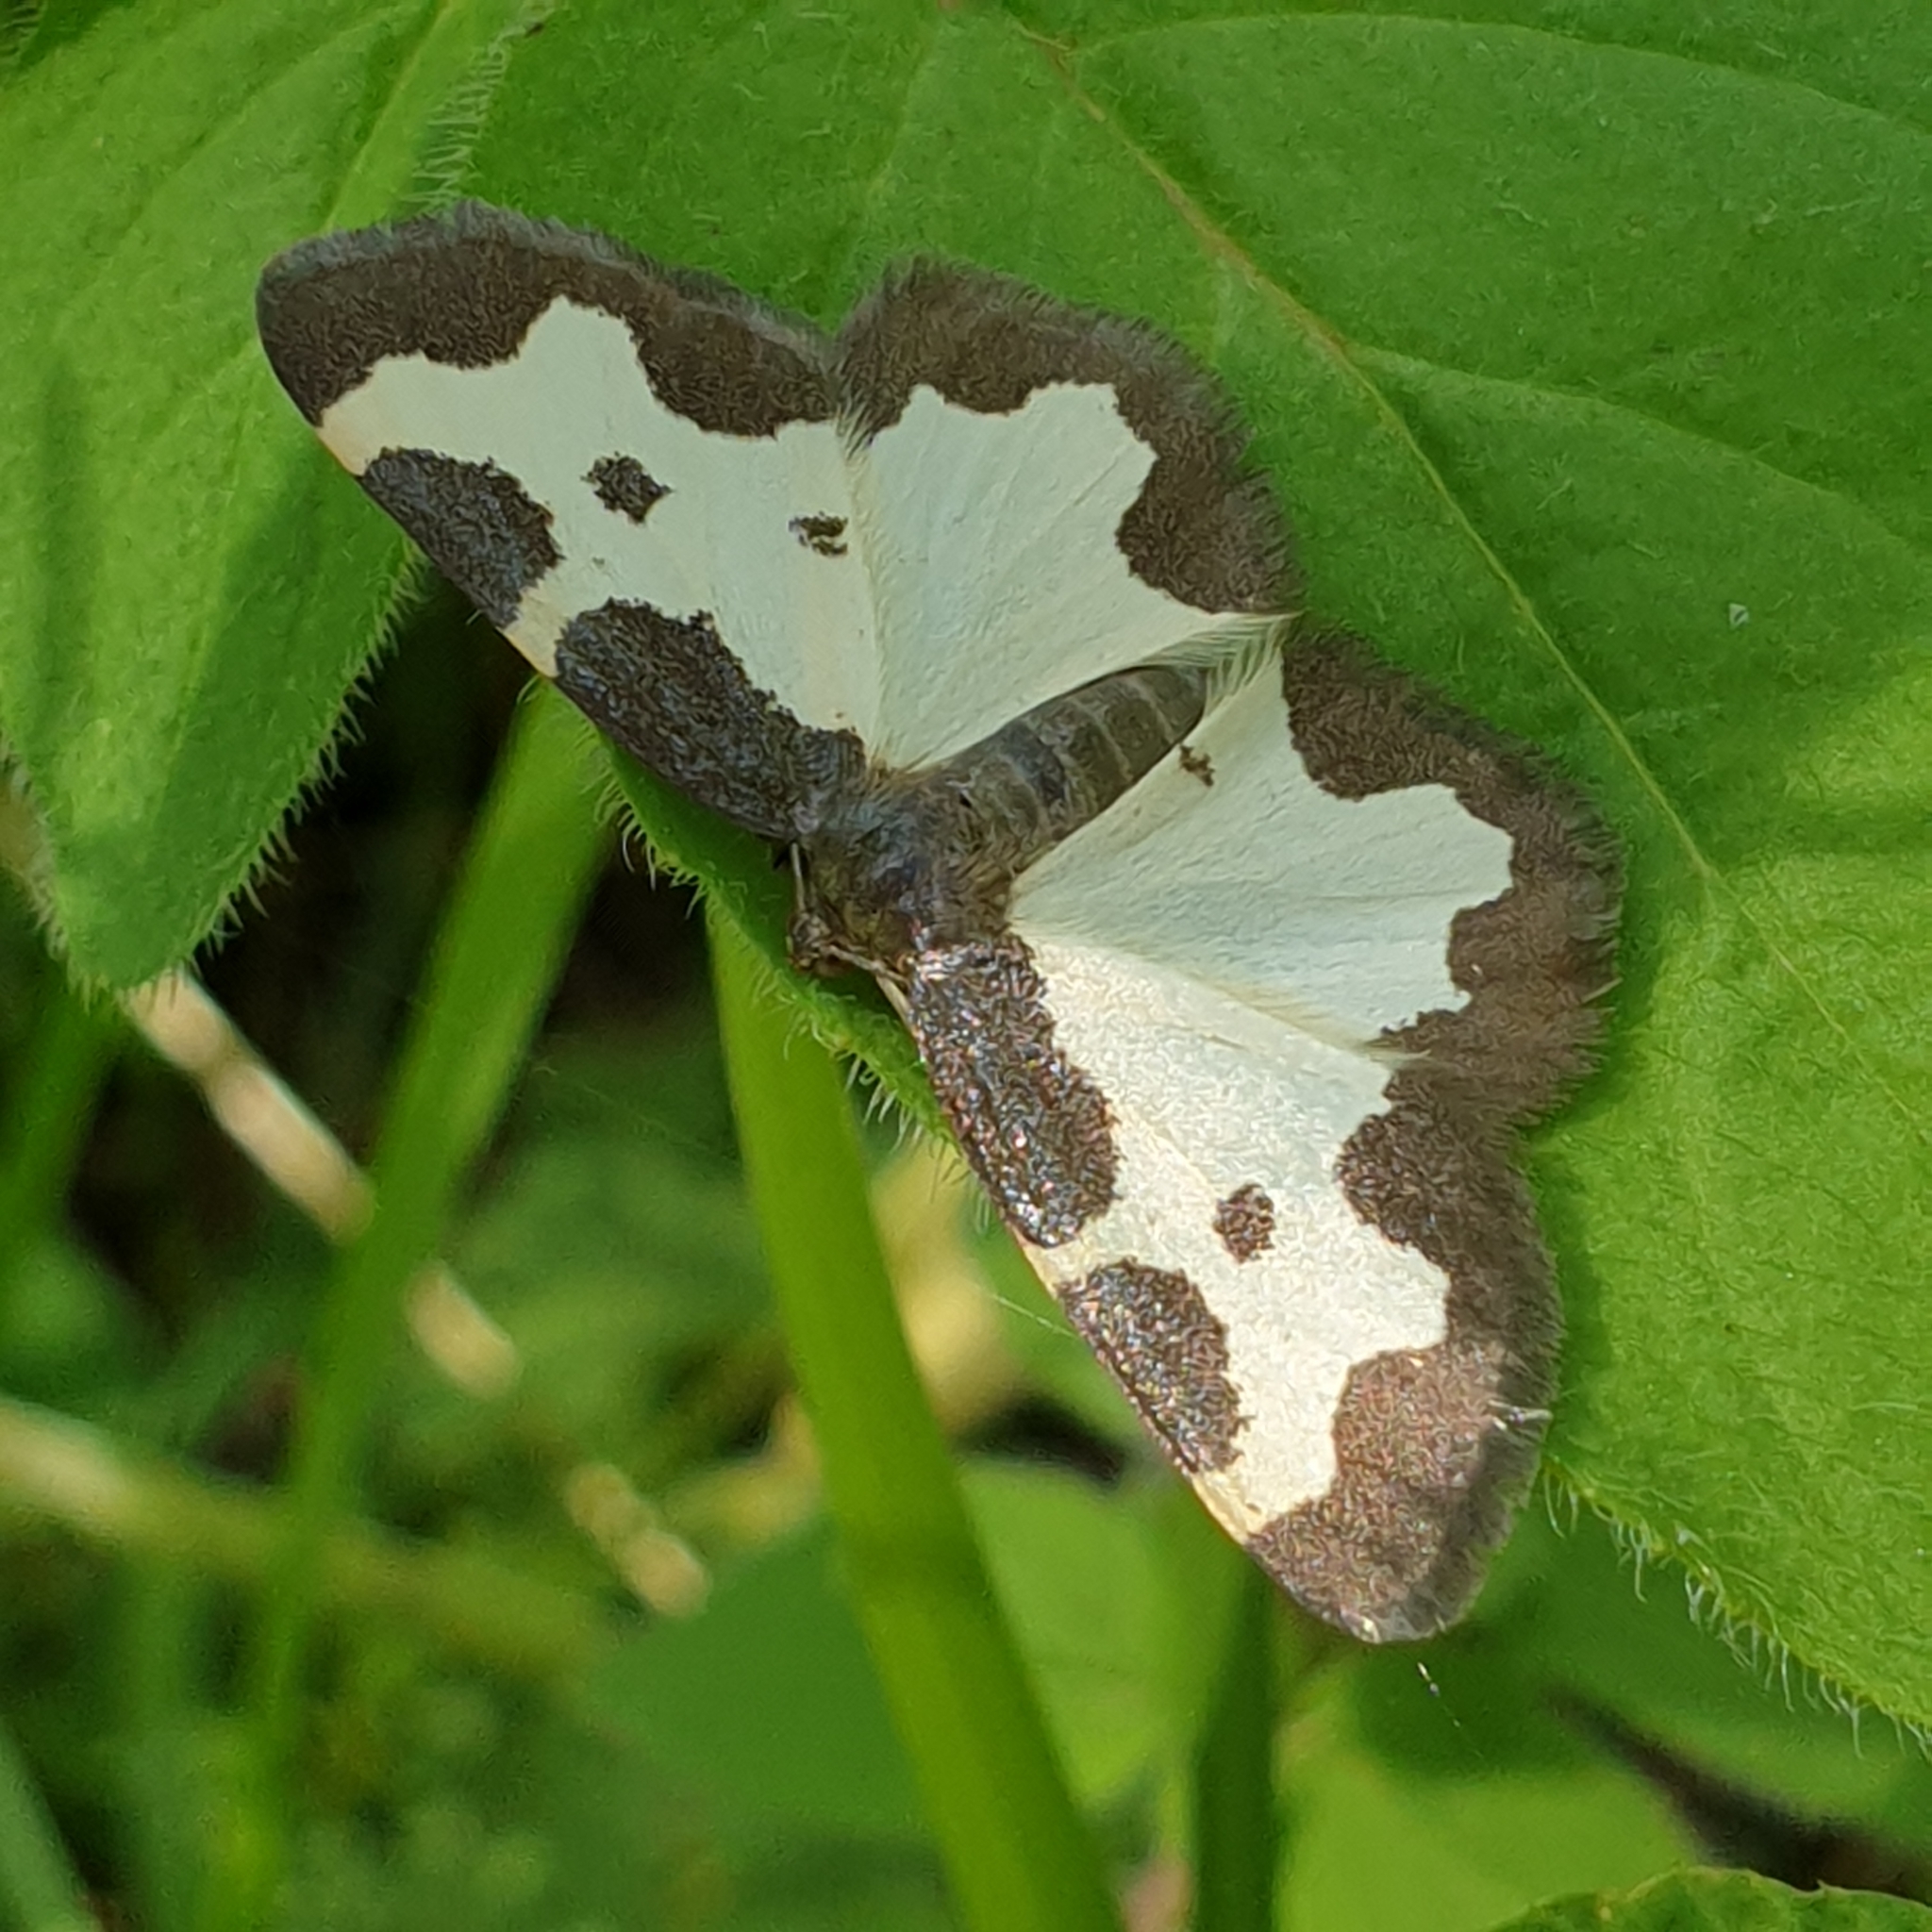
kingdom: Animalia
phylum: Arthropoda
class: Insecta
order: Lepidoptera
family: Geometridae
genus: Lomaspilis
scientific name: Lomaspilis marginata
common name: Clouded border
